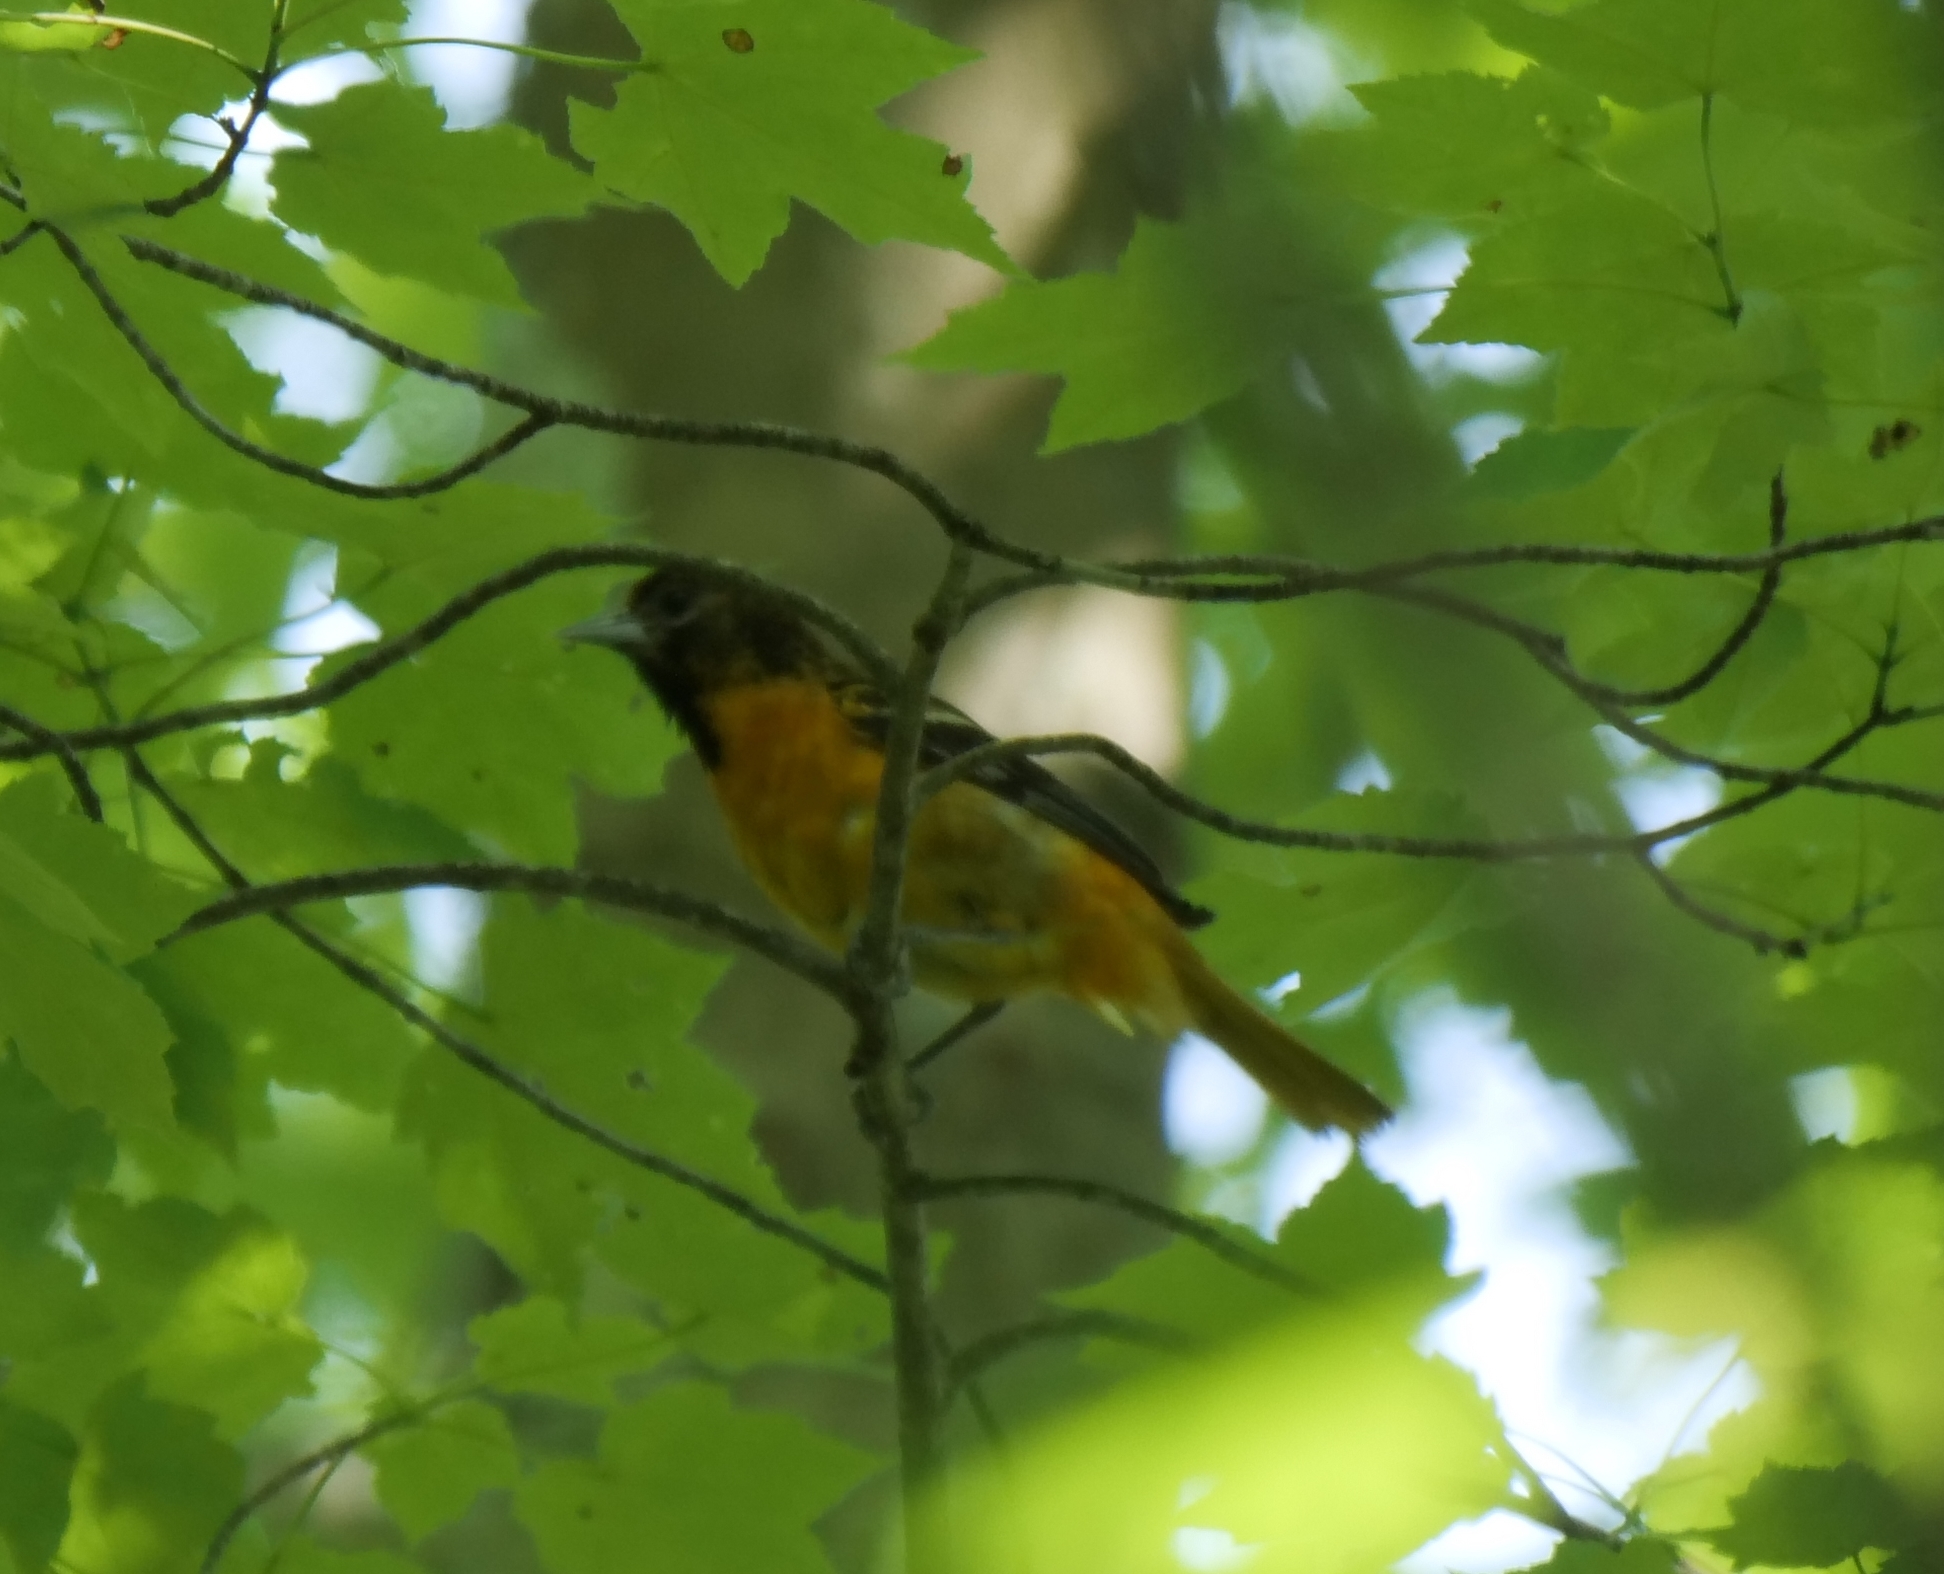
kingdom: Animalia
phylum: Chordata
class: Aves
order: Passeriformes
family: Icteridae
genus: Icterus
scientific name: Icterus galbula
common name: Baltimore oriole
